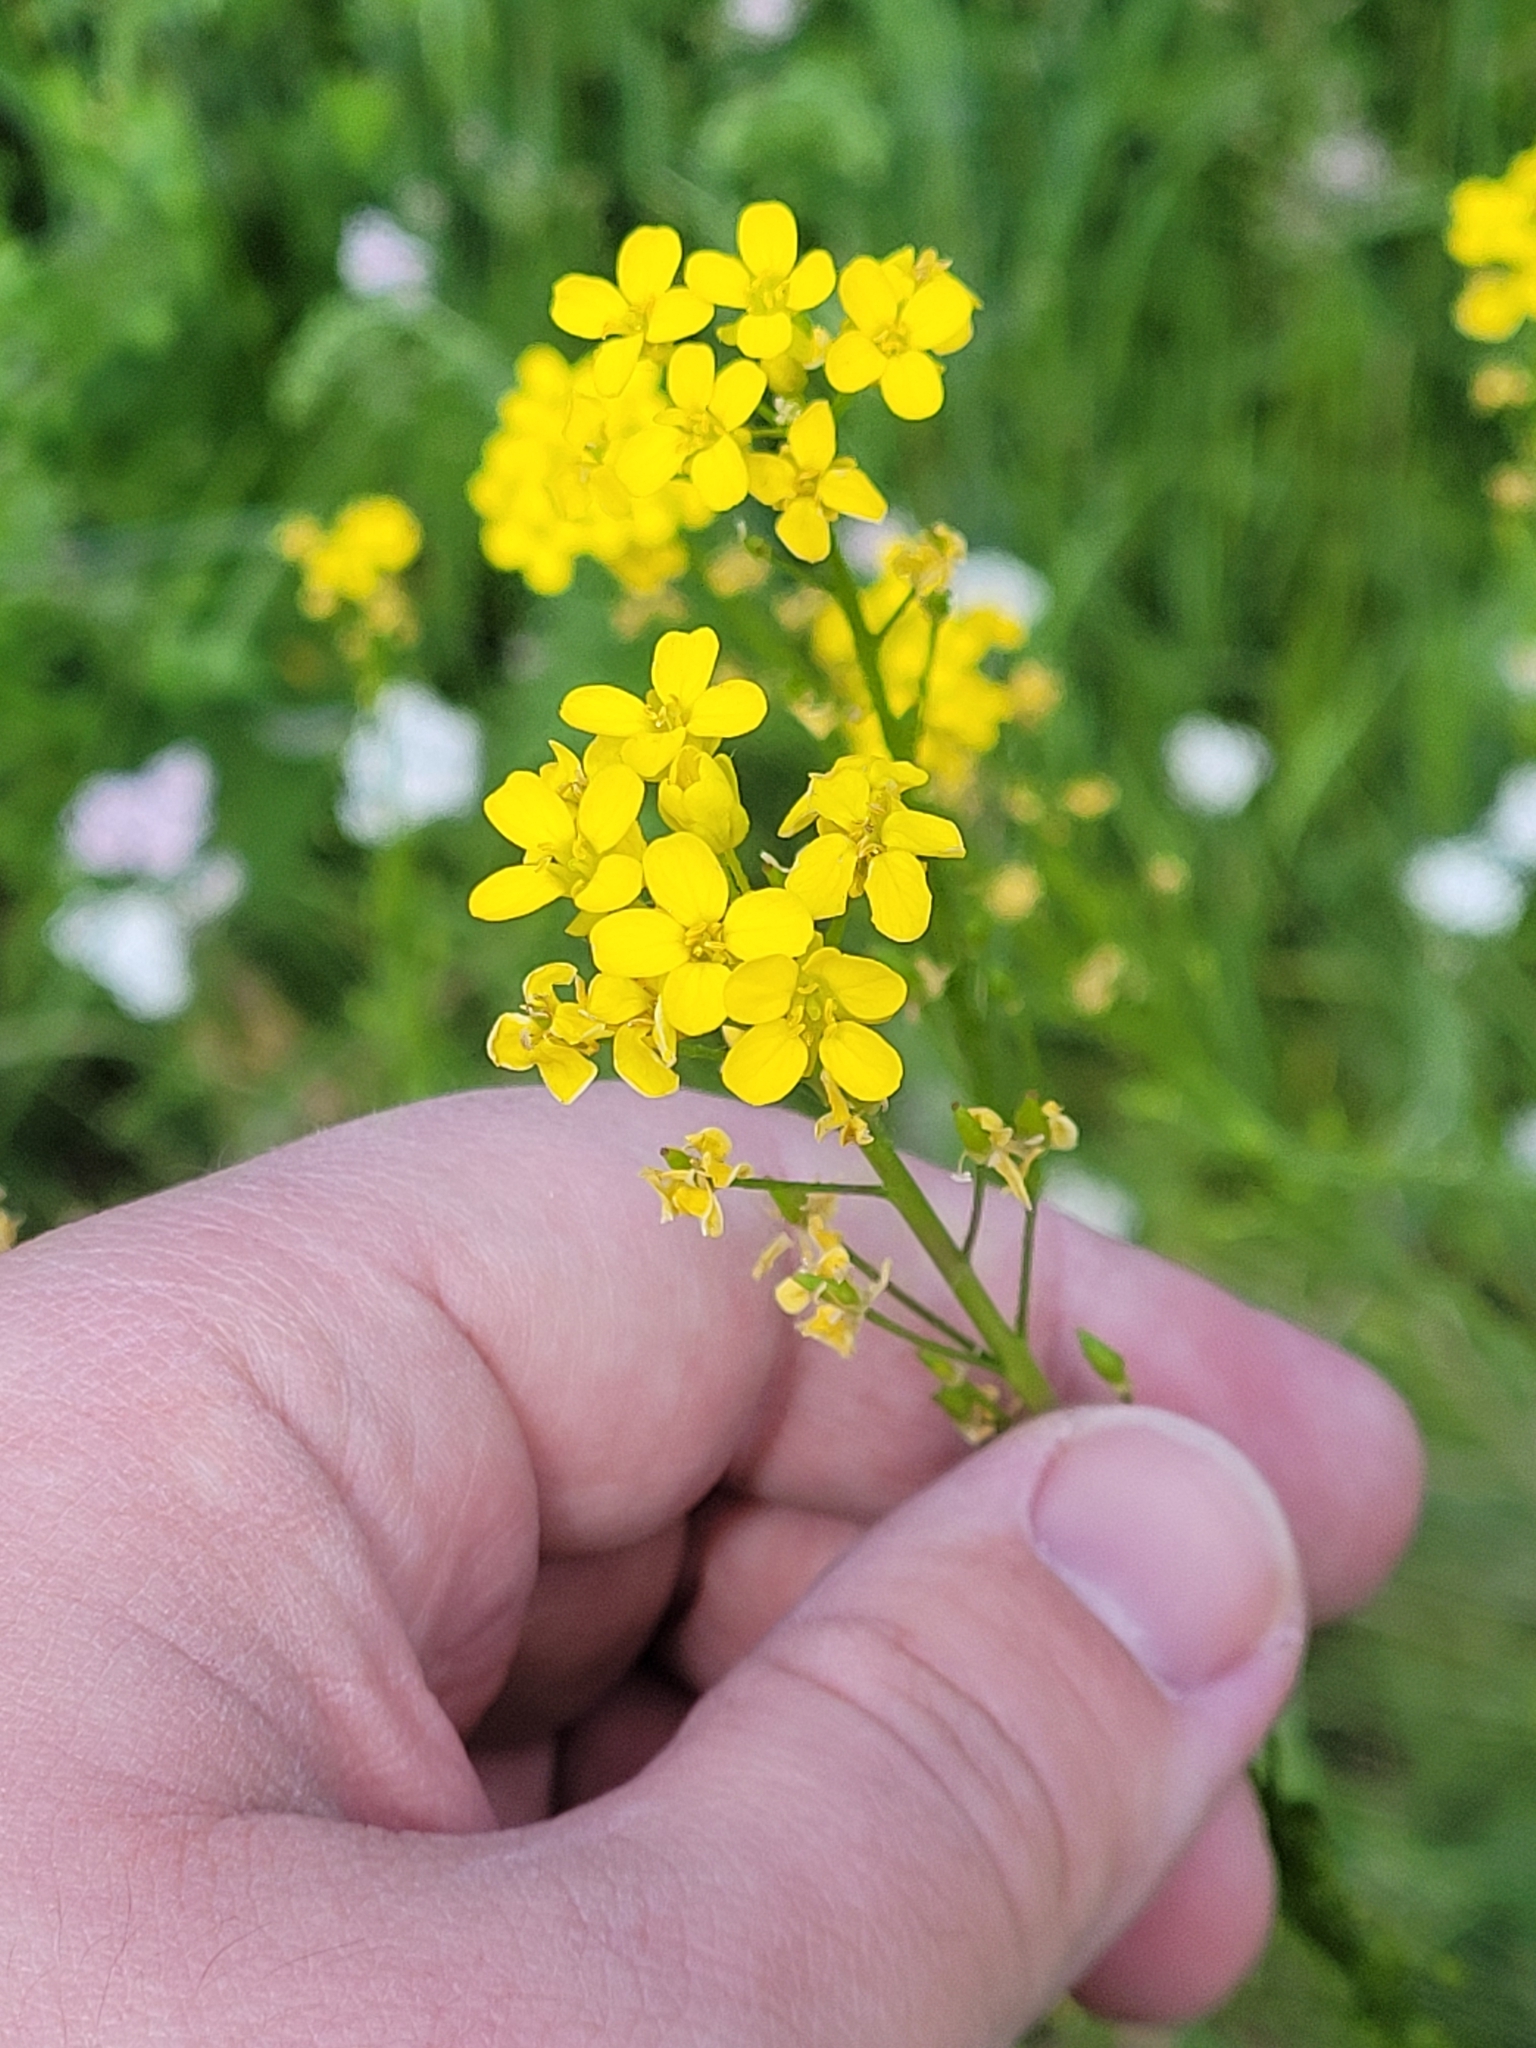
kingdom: Plantae
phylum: Tracheophyta
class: Magnoliopsida
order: Brassicales
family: Brassicaceae
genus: Bunias
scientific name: Bunias orientalis
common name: Warty-cabbage
